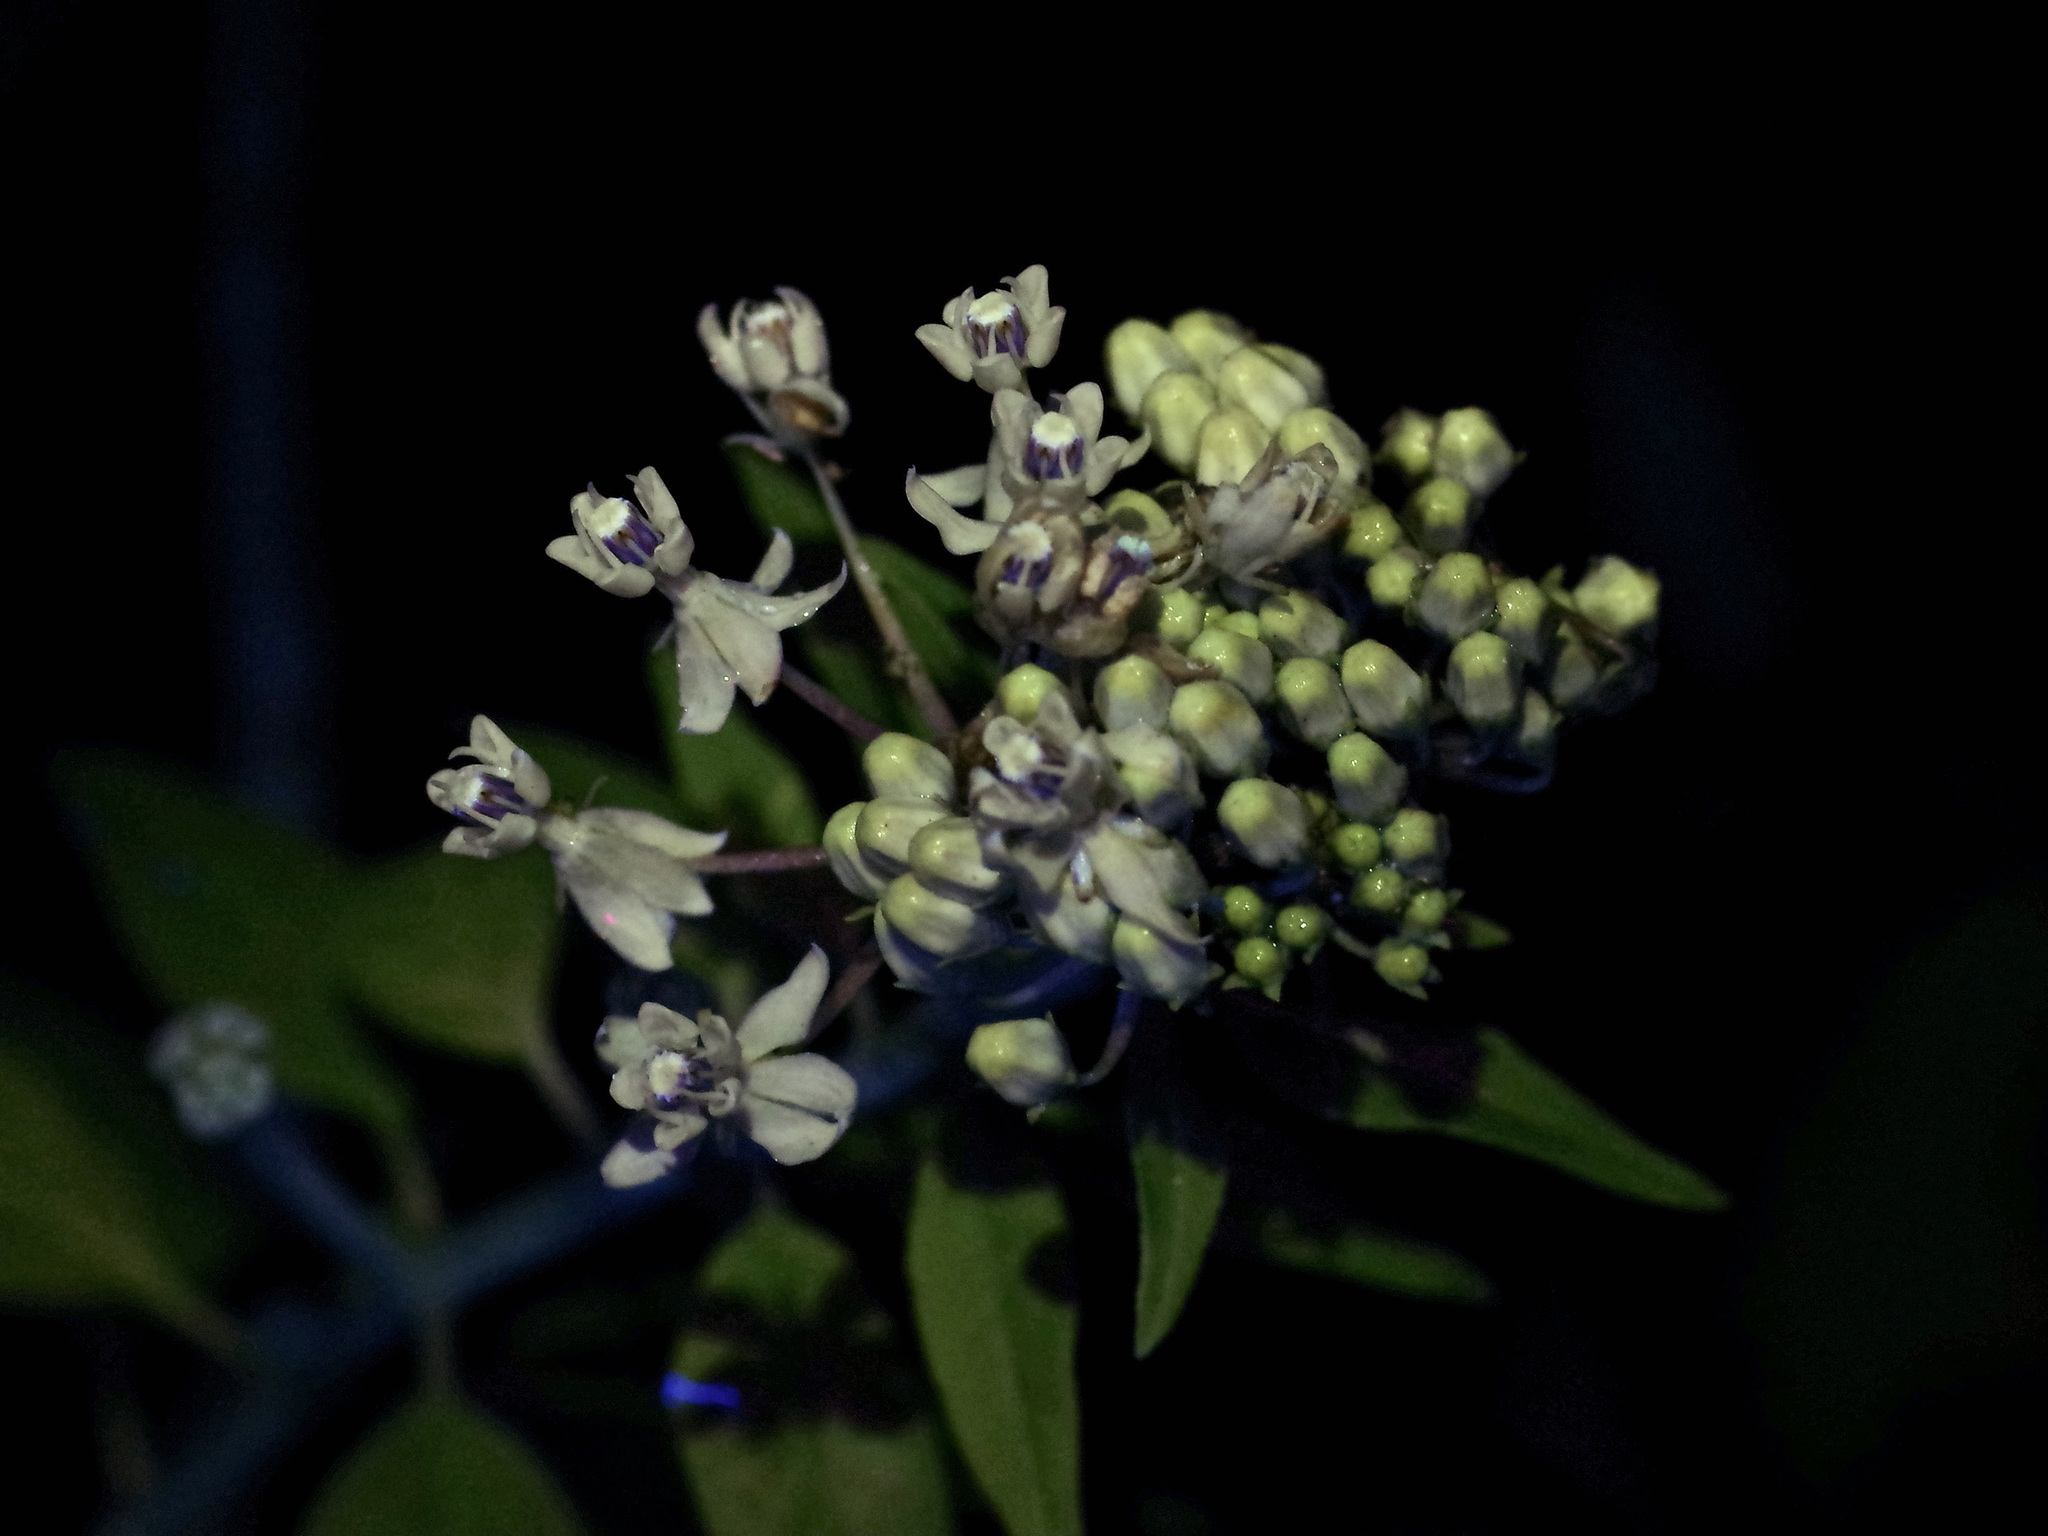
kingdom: Plantae
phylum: Tracheophyta
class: Magnoliopsida
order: Gentianales
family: Apocynaceae
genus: Asclepias
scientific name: Asclepias texana
